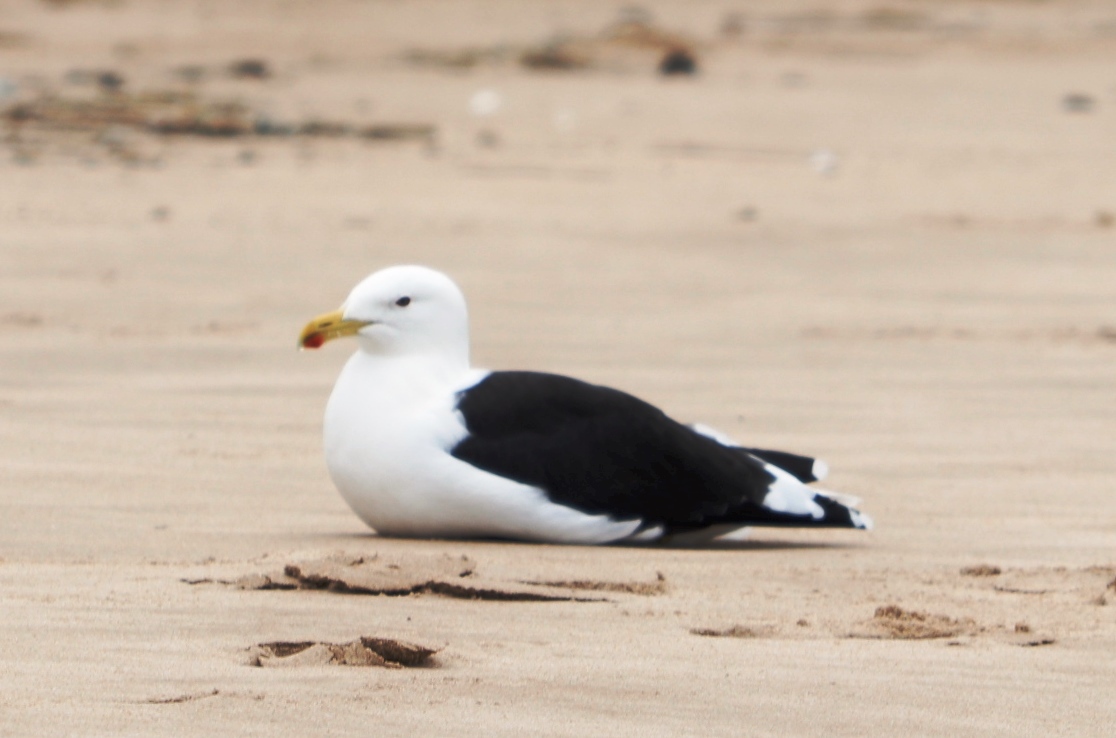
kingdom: Animalia
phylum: Chordata
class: Aves
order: Charadriiformes
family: Laridae
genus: Larus
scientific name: Larus dominicanus
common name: Kelp gull
